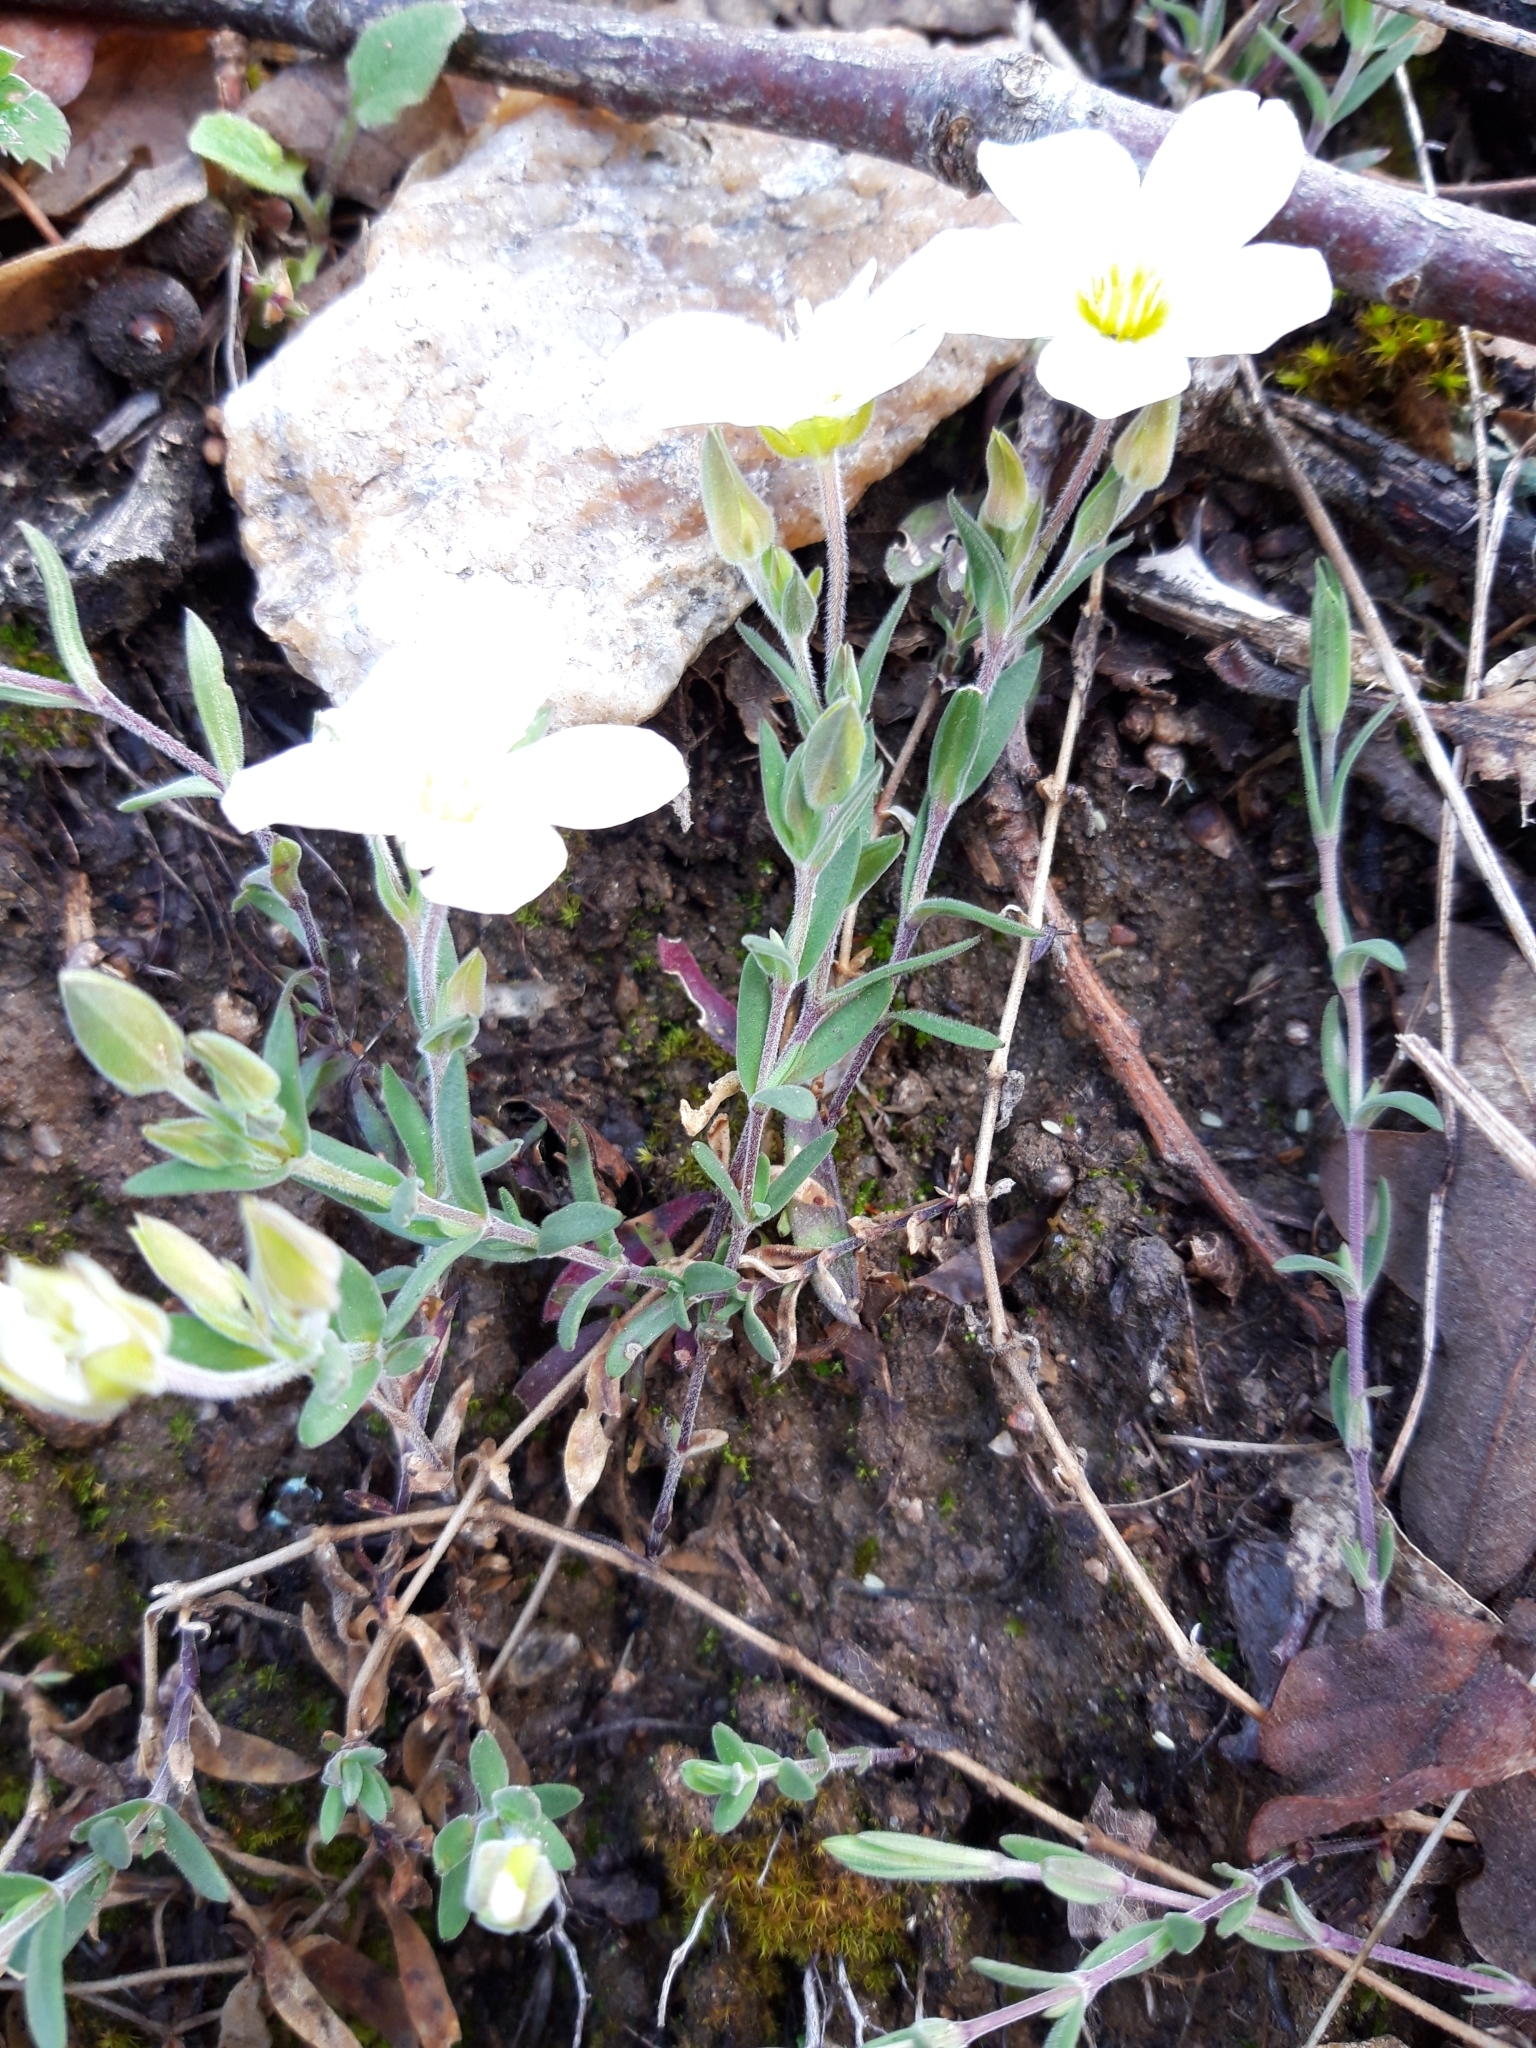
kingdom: Plantae
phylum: Tracheophyta
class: Magnoliopsida
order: Caryophyllales
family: Caryophyllaceae
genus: Arenaria
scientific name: Arenaria montana
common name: Mountain sandwort
